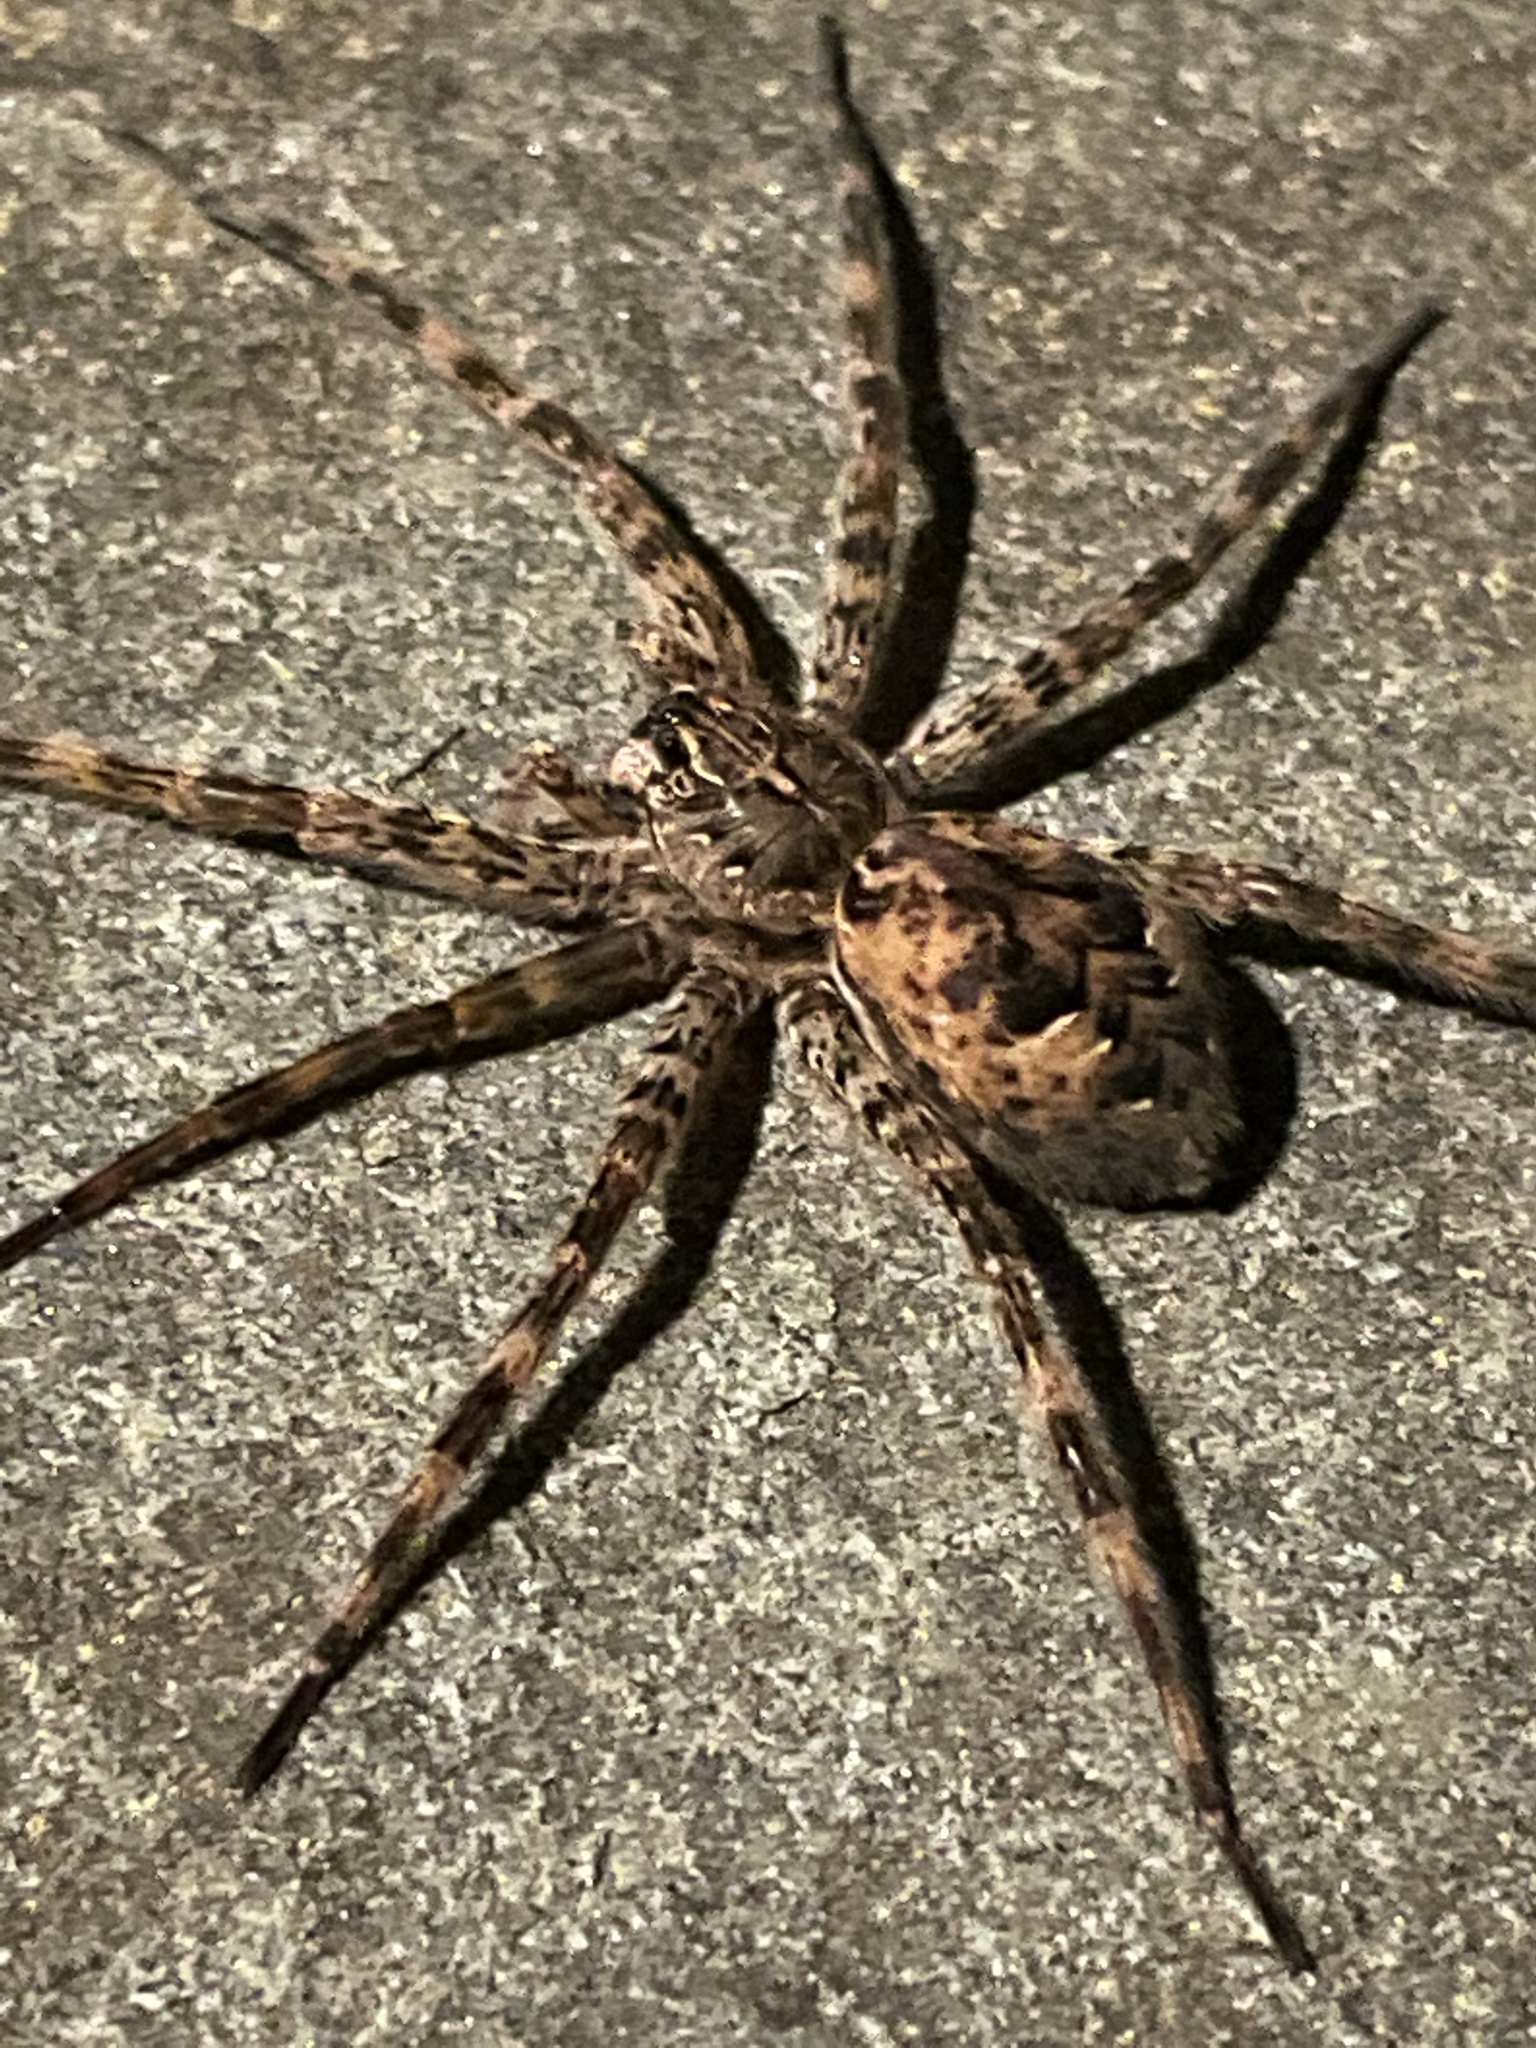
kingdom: Animalia
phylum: Arthropoda
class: Arachnida
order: Araneae
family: Pisauridae
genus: Dolomedes
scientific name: Dolomedes tenebrosus
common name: Dark fishing spider
